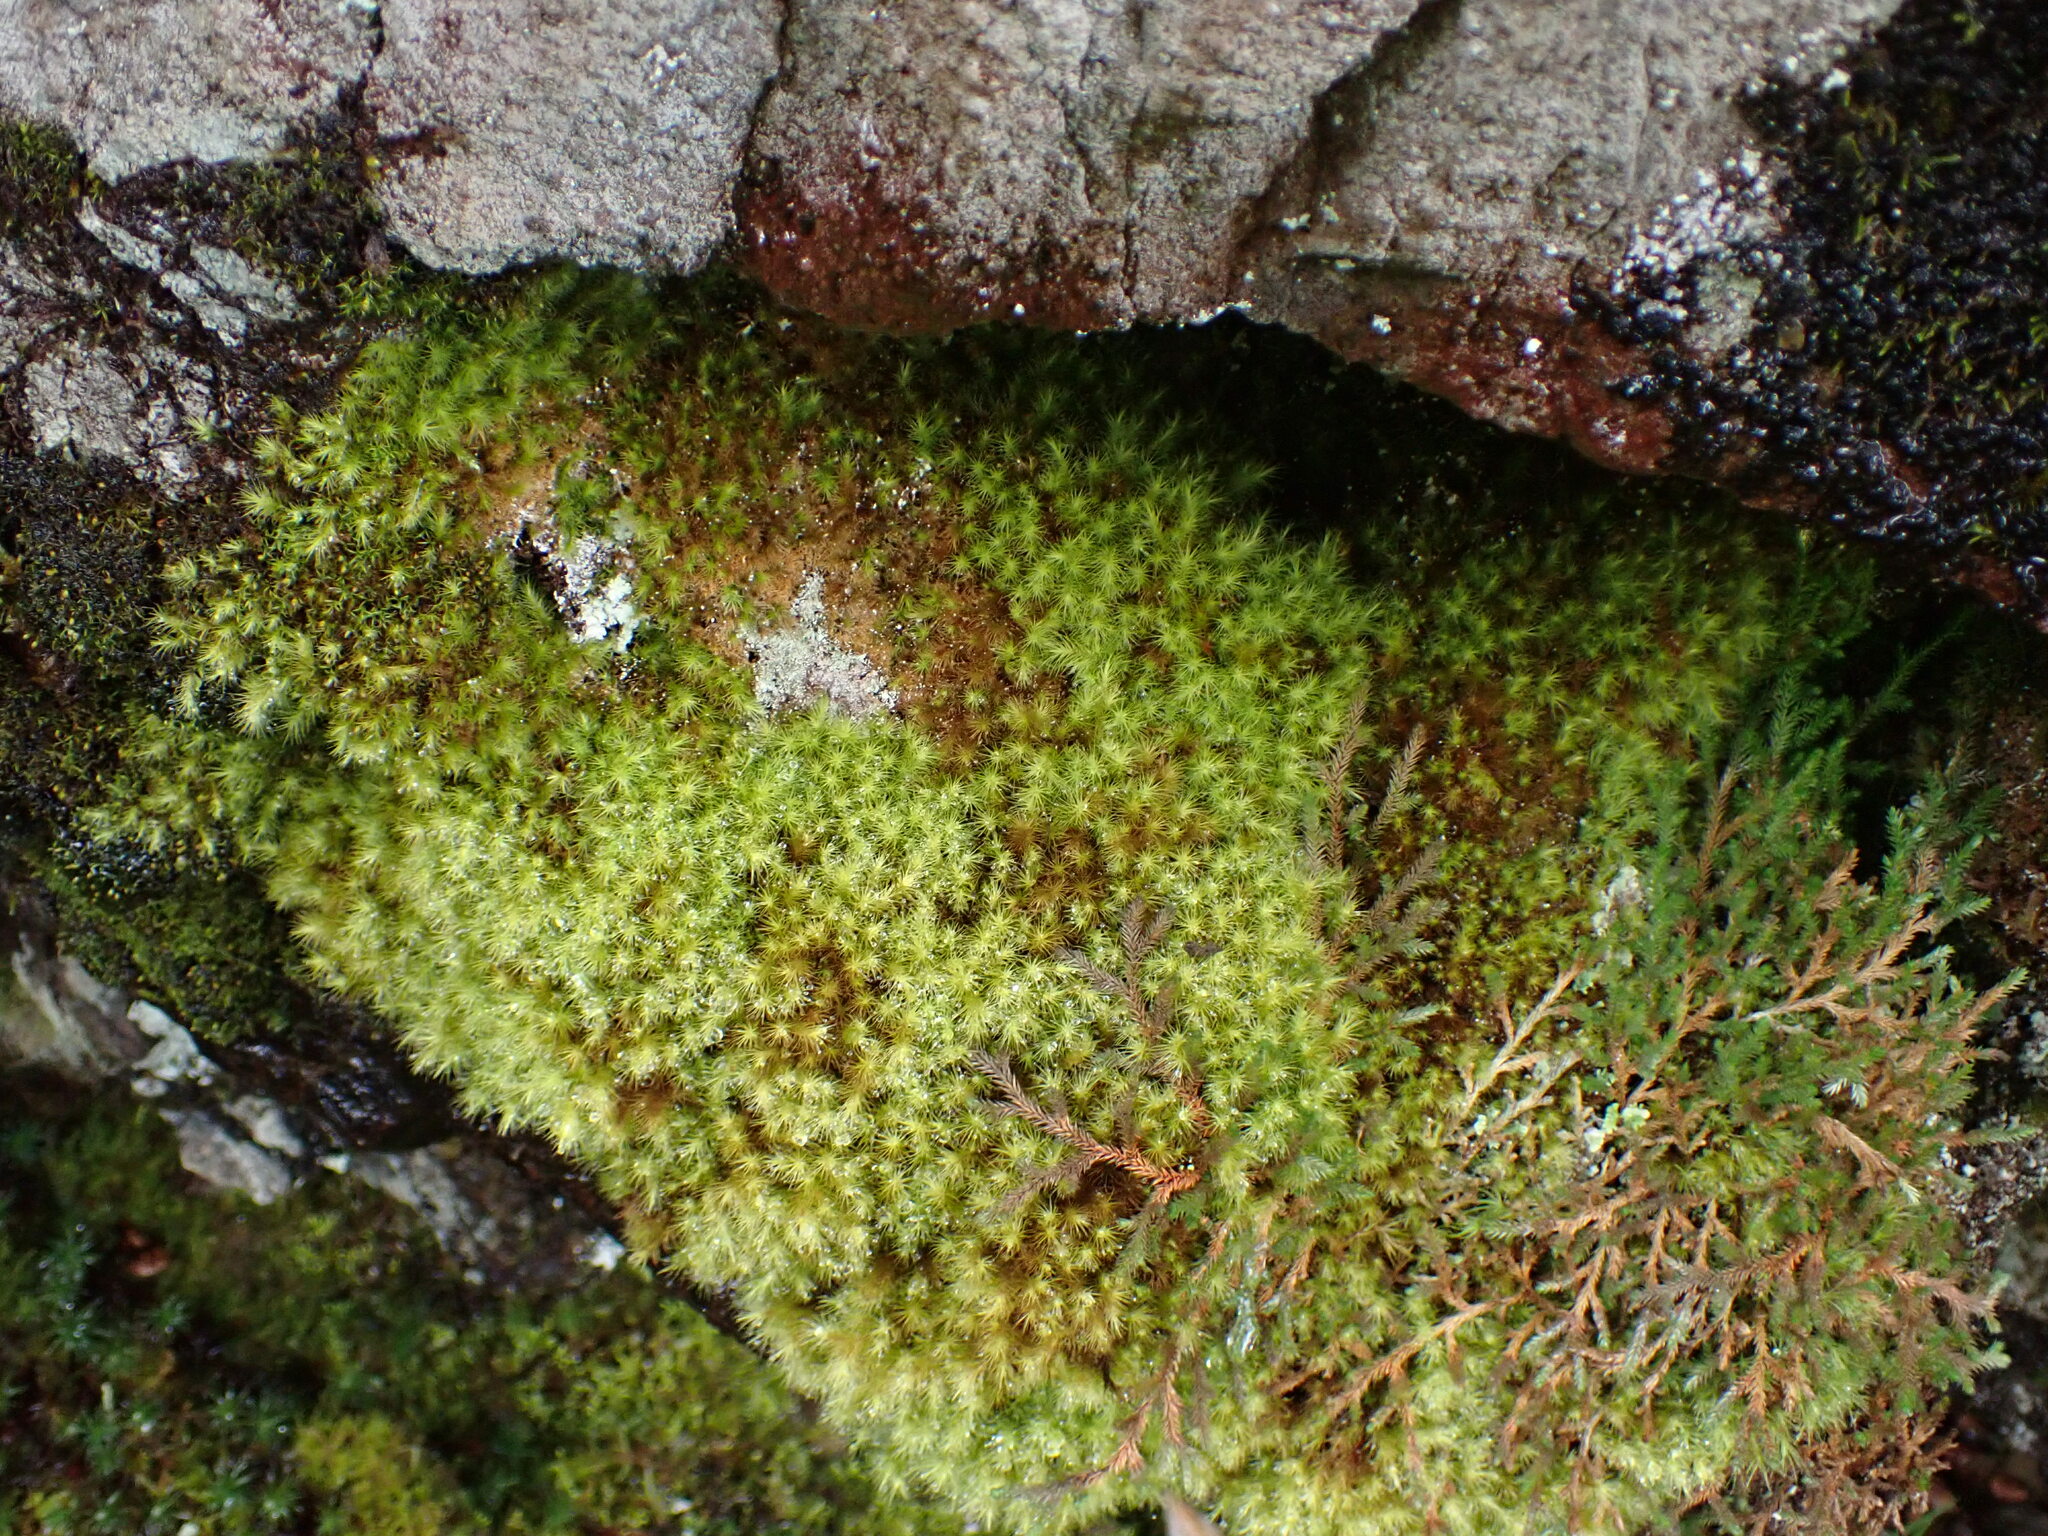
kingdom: Plantae
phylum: Bryophyta
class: Bryopsida
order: Bartramiales
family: Bartramiaceae
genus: Anacolia
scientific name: Anacolia menziesii
